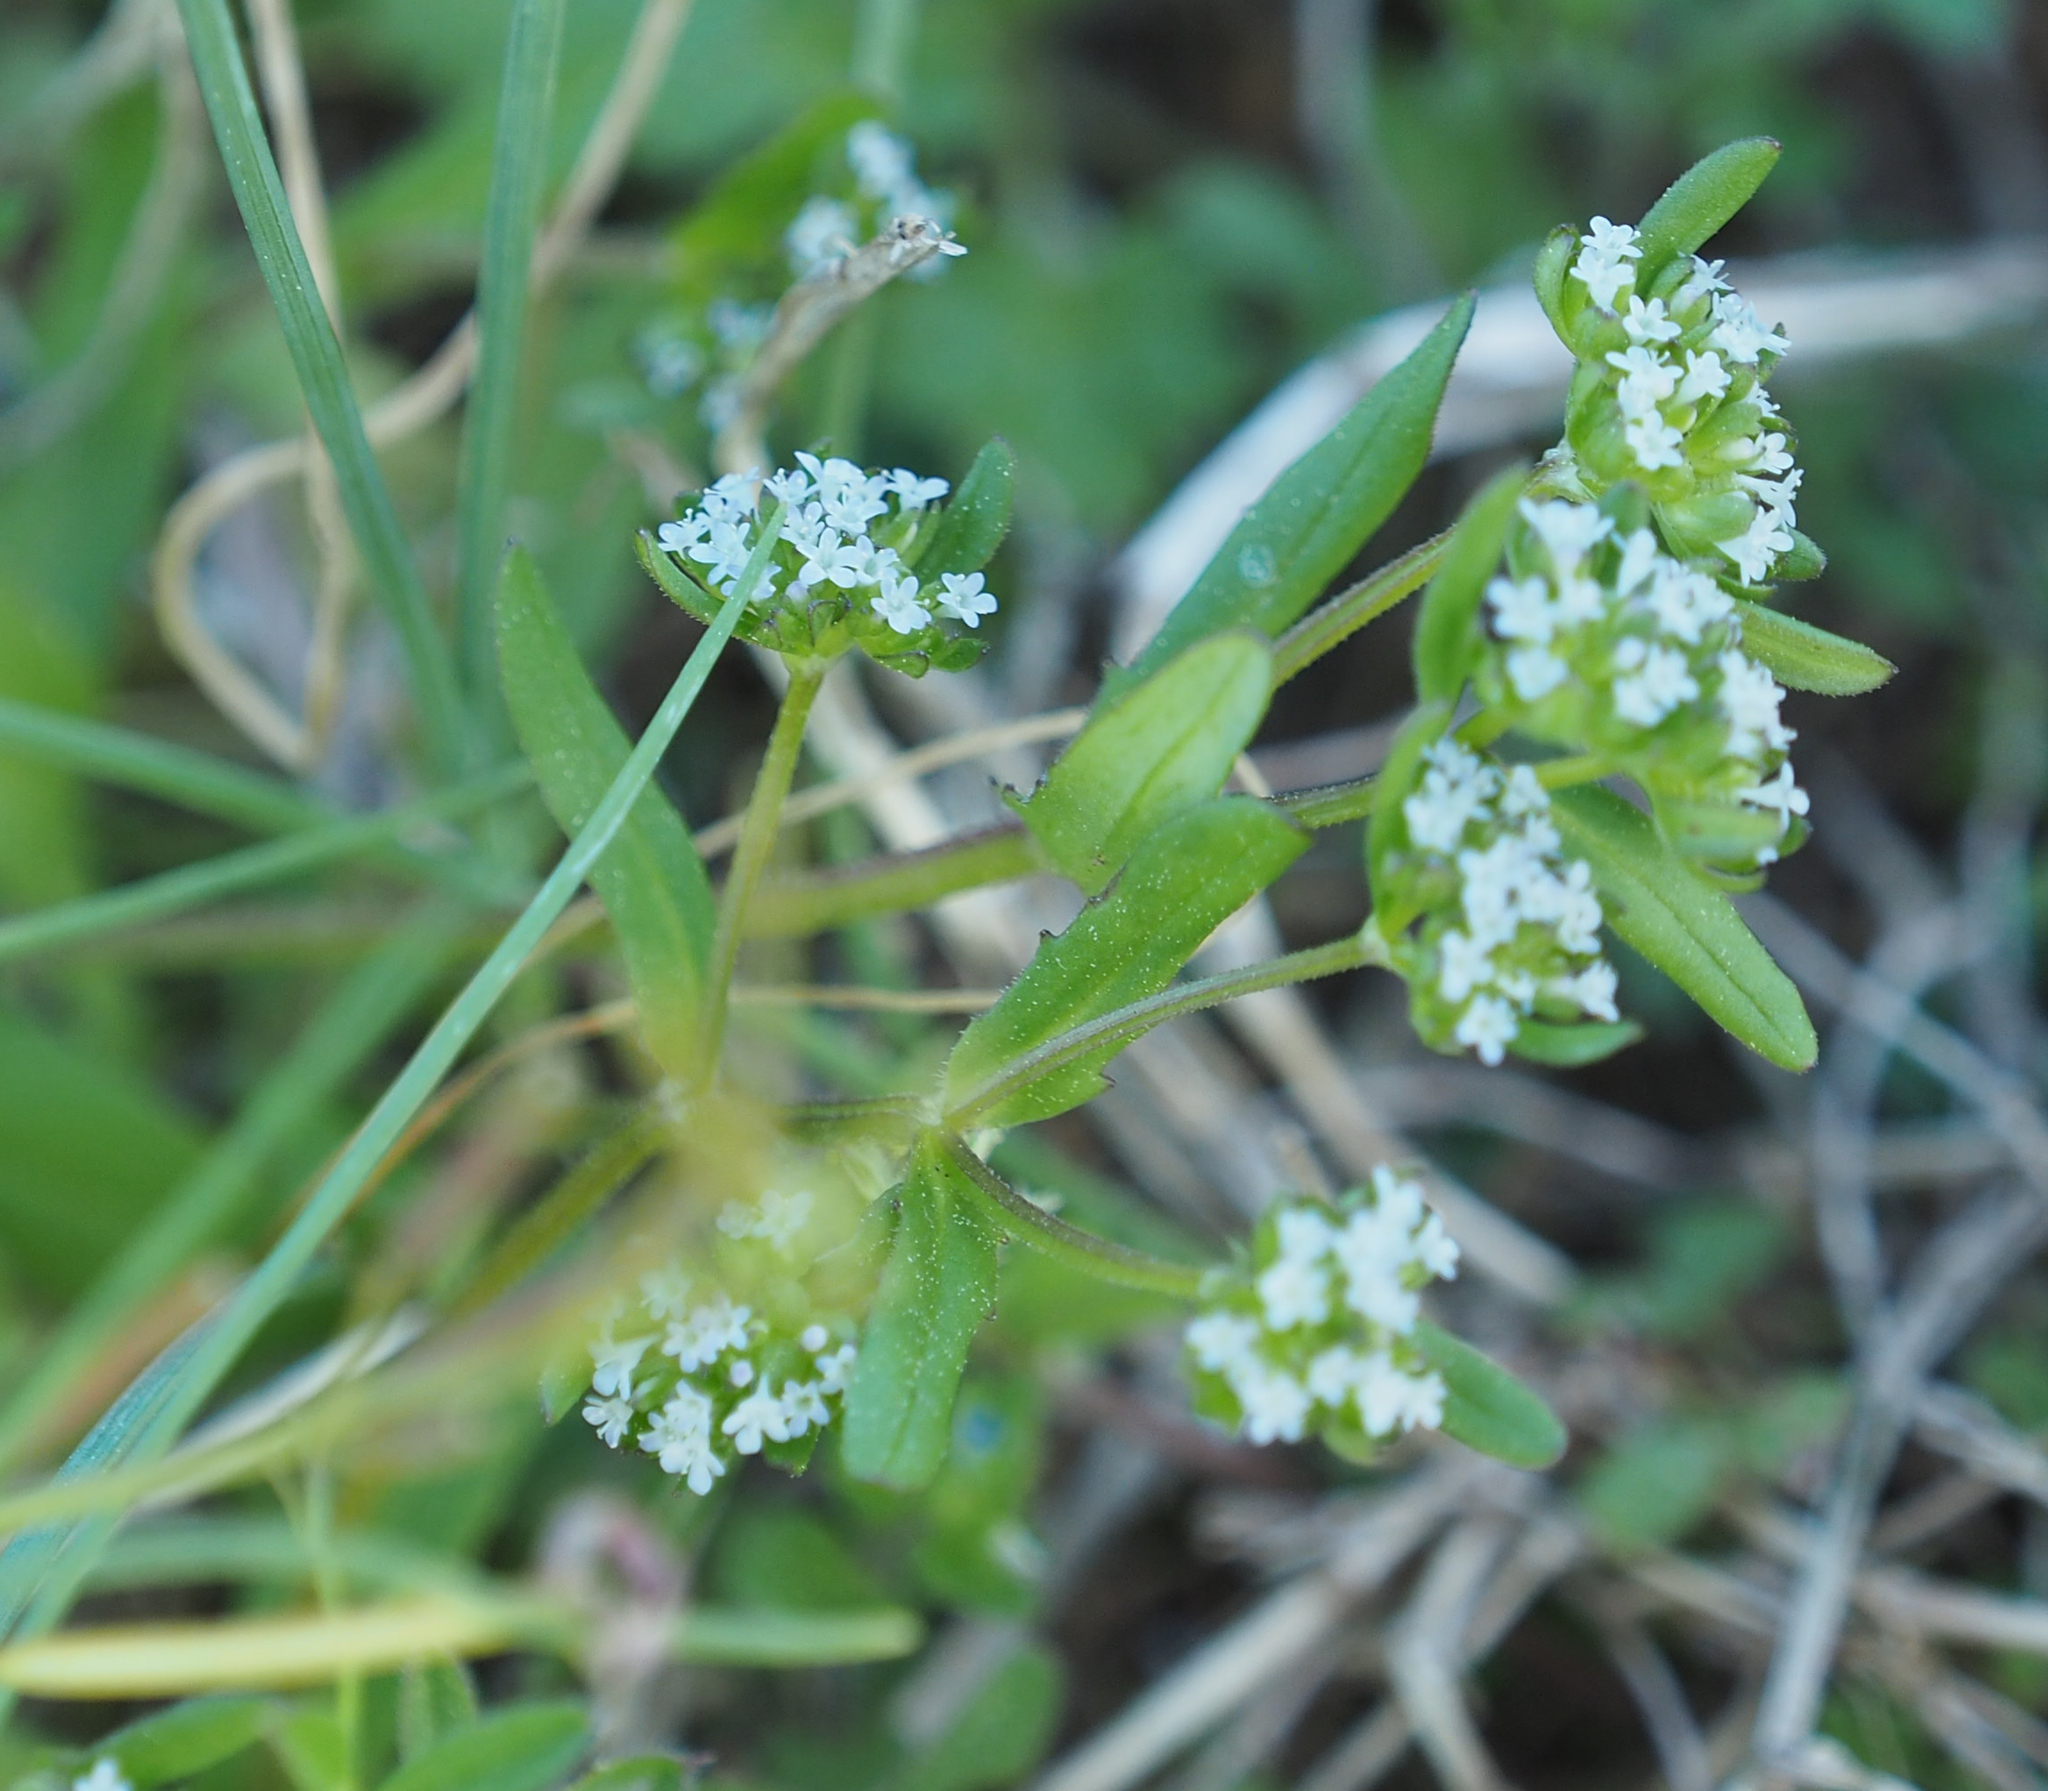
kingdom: Plantae
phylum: Tracheophyta
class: Magnoliopsida
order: Dipsacales
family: Caprifoliaceae
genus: Valerianella
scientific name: Valerianella locusta
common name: Common cornsalad
